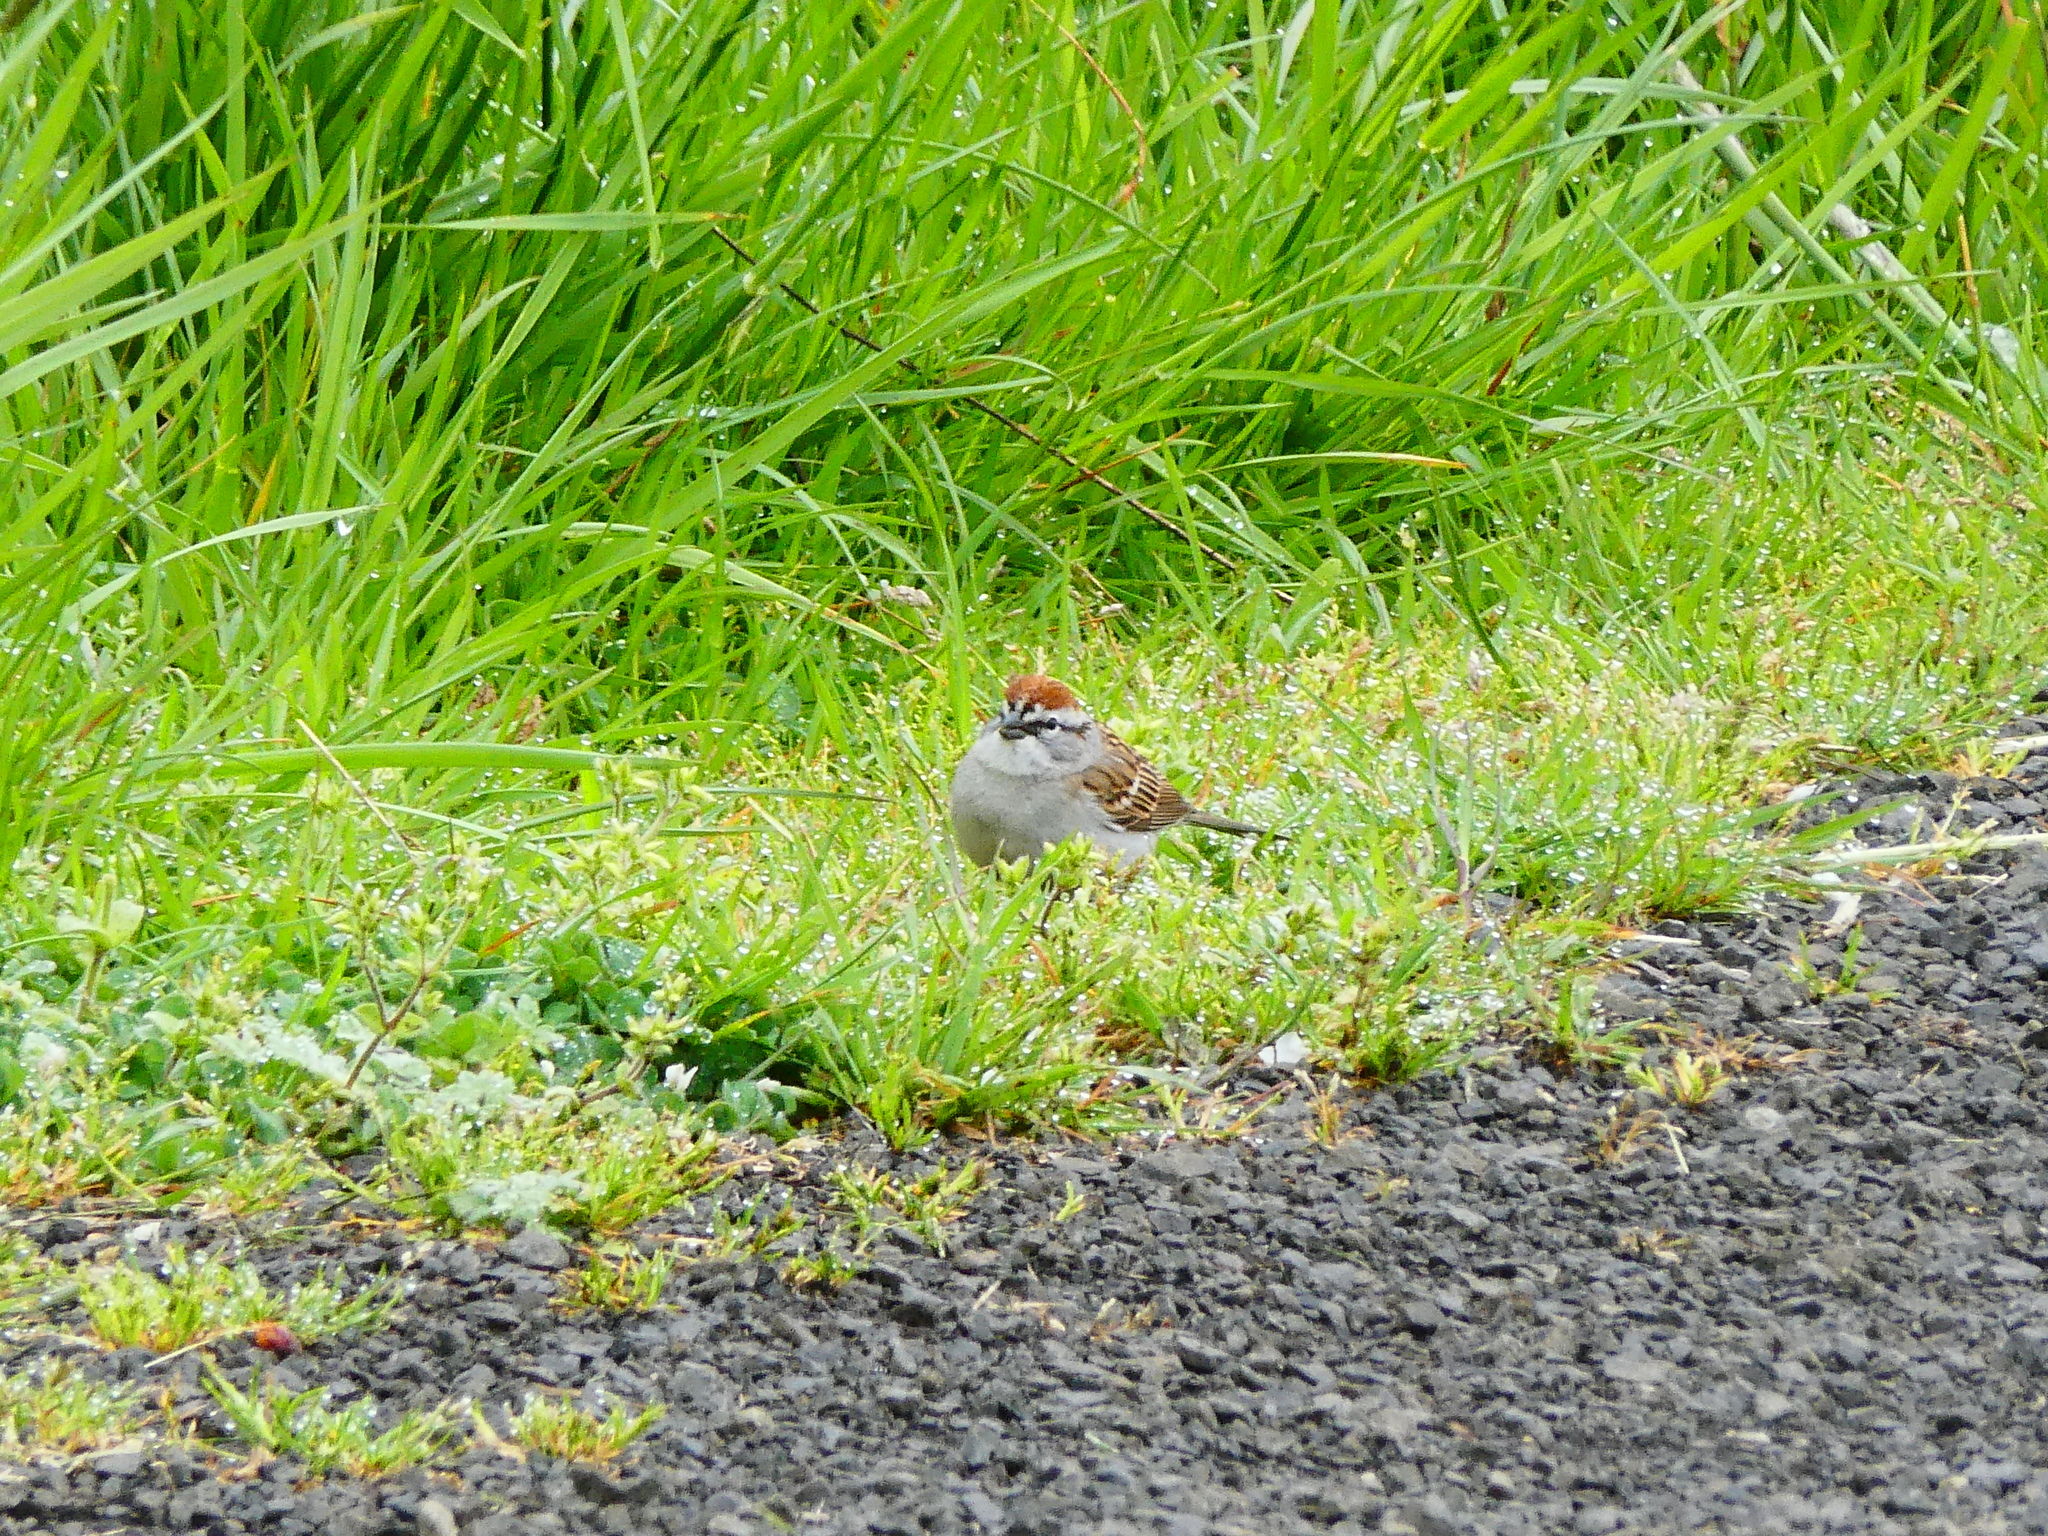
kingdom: Animalia
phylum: Chordata
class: Aves
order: Passeriformes
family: Passerellidae
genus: Spizella
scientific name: Spizella passerina
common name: Chipping sparrow
